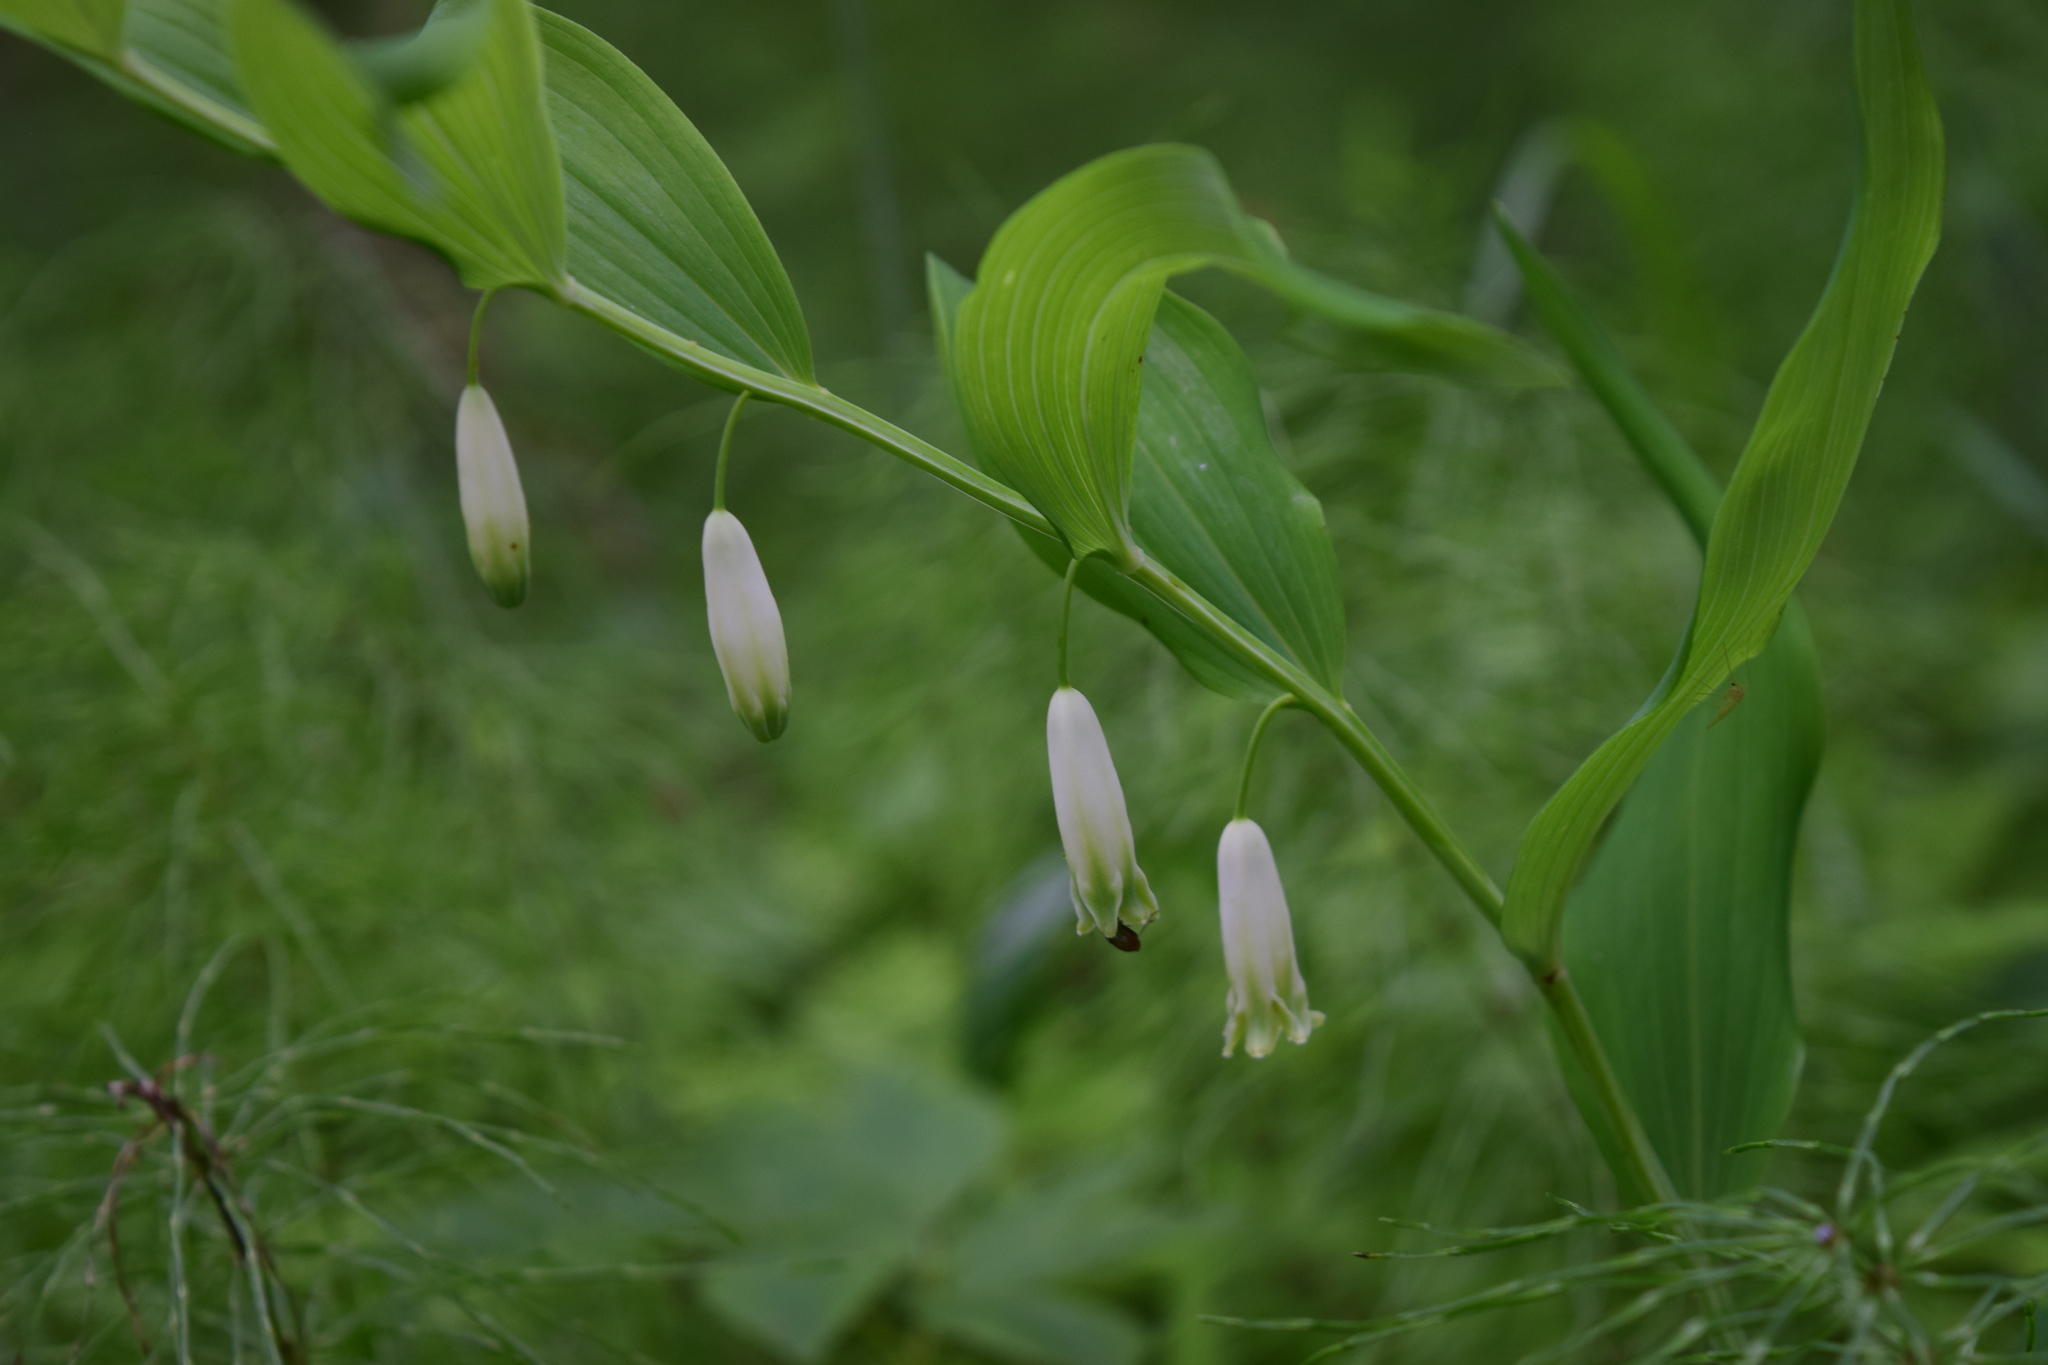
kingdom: Plantae
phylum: Tracheophyta
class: Liliopsida
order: Asparagales
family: Asparagaceae
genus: Polygonatum
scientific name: Polygonatum odoratum
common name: Angular solomon's-seal
